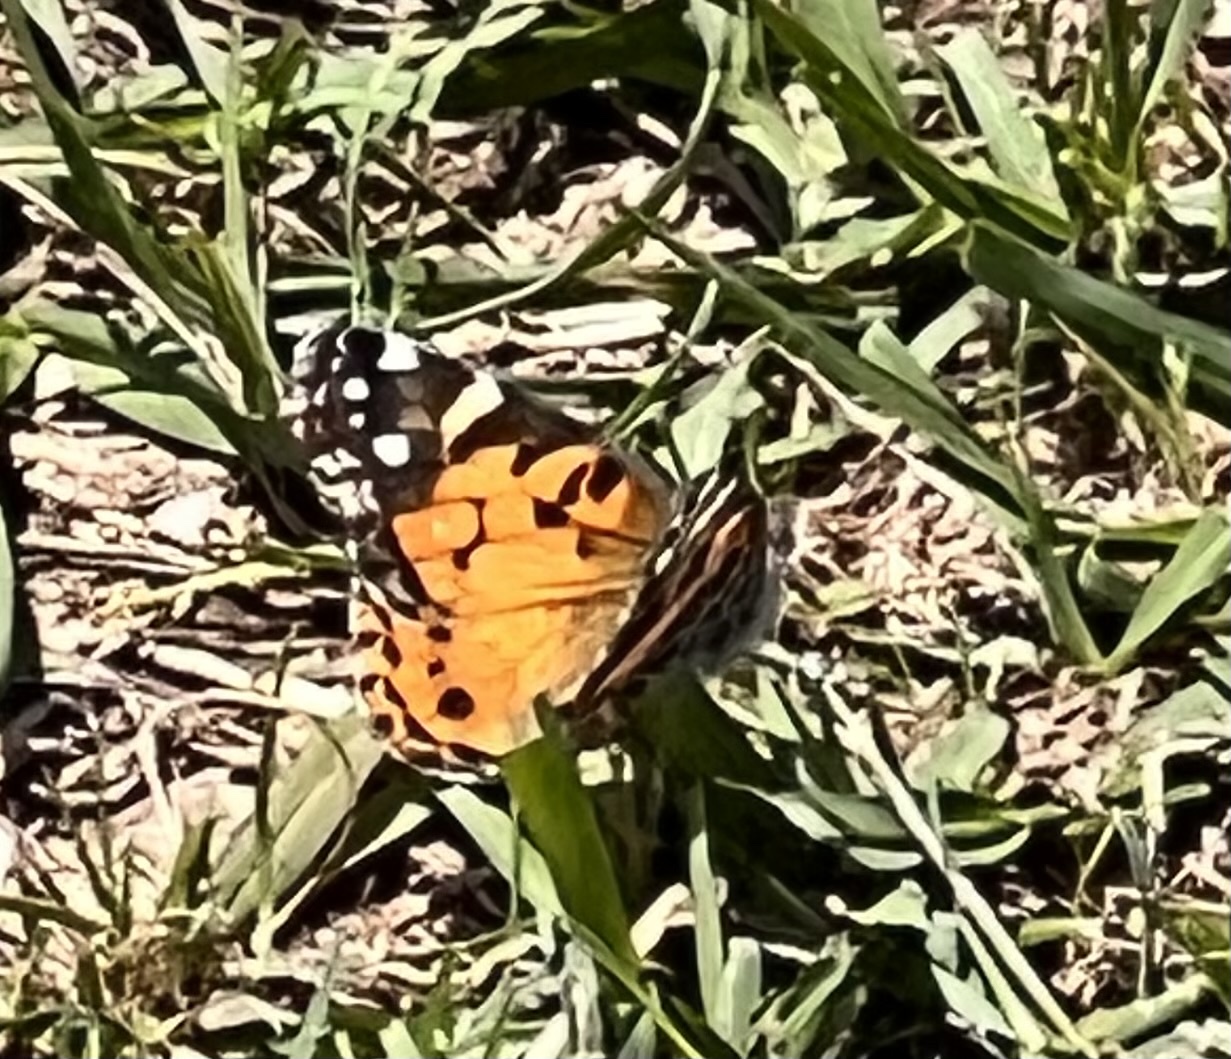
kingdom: Animalia
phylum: Arthropoda
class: Insecta
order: Lepidoptera
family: Nymphalidae
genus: Vanessa
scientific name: Vanessa virginiensis
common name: American lady
